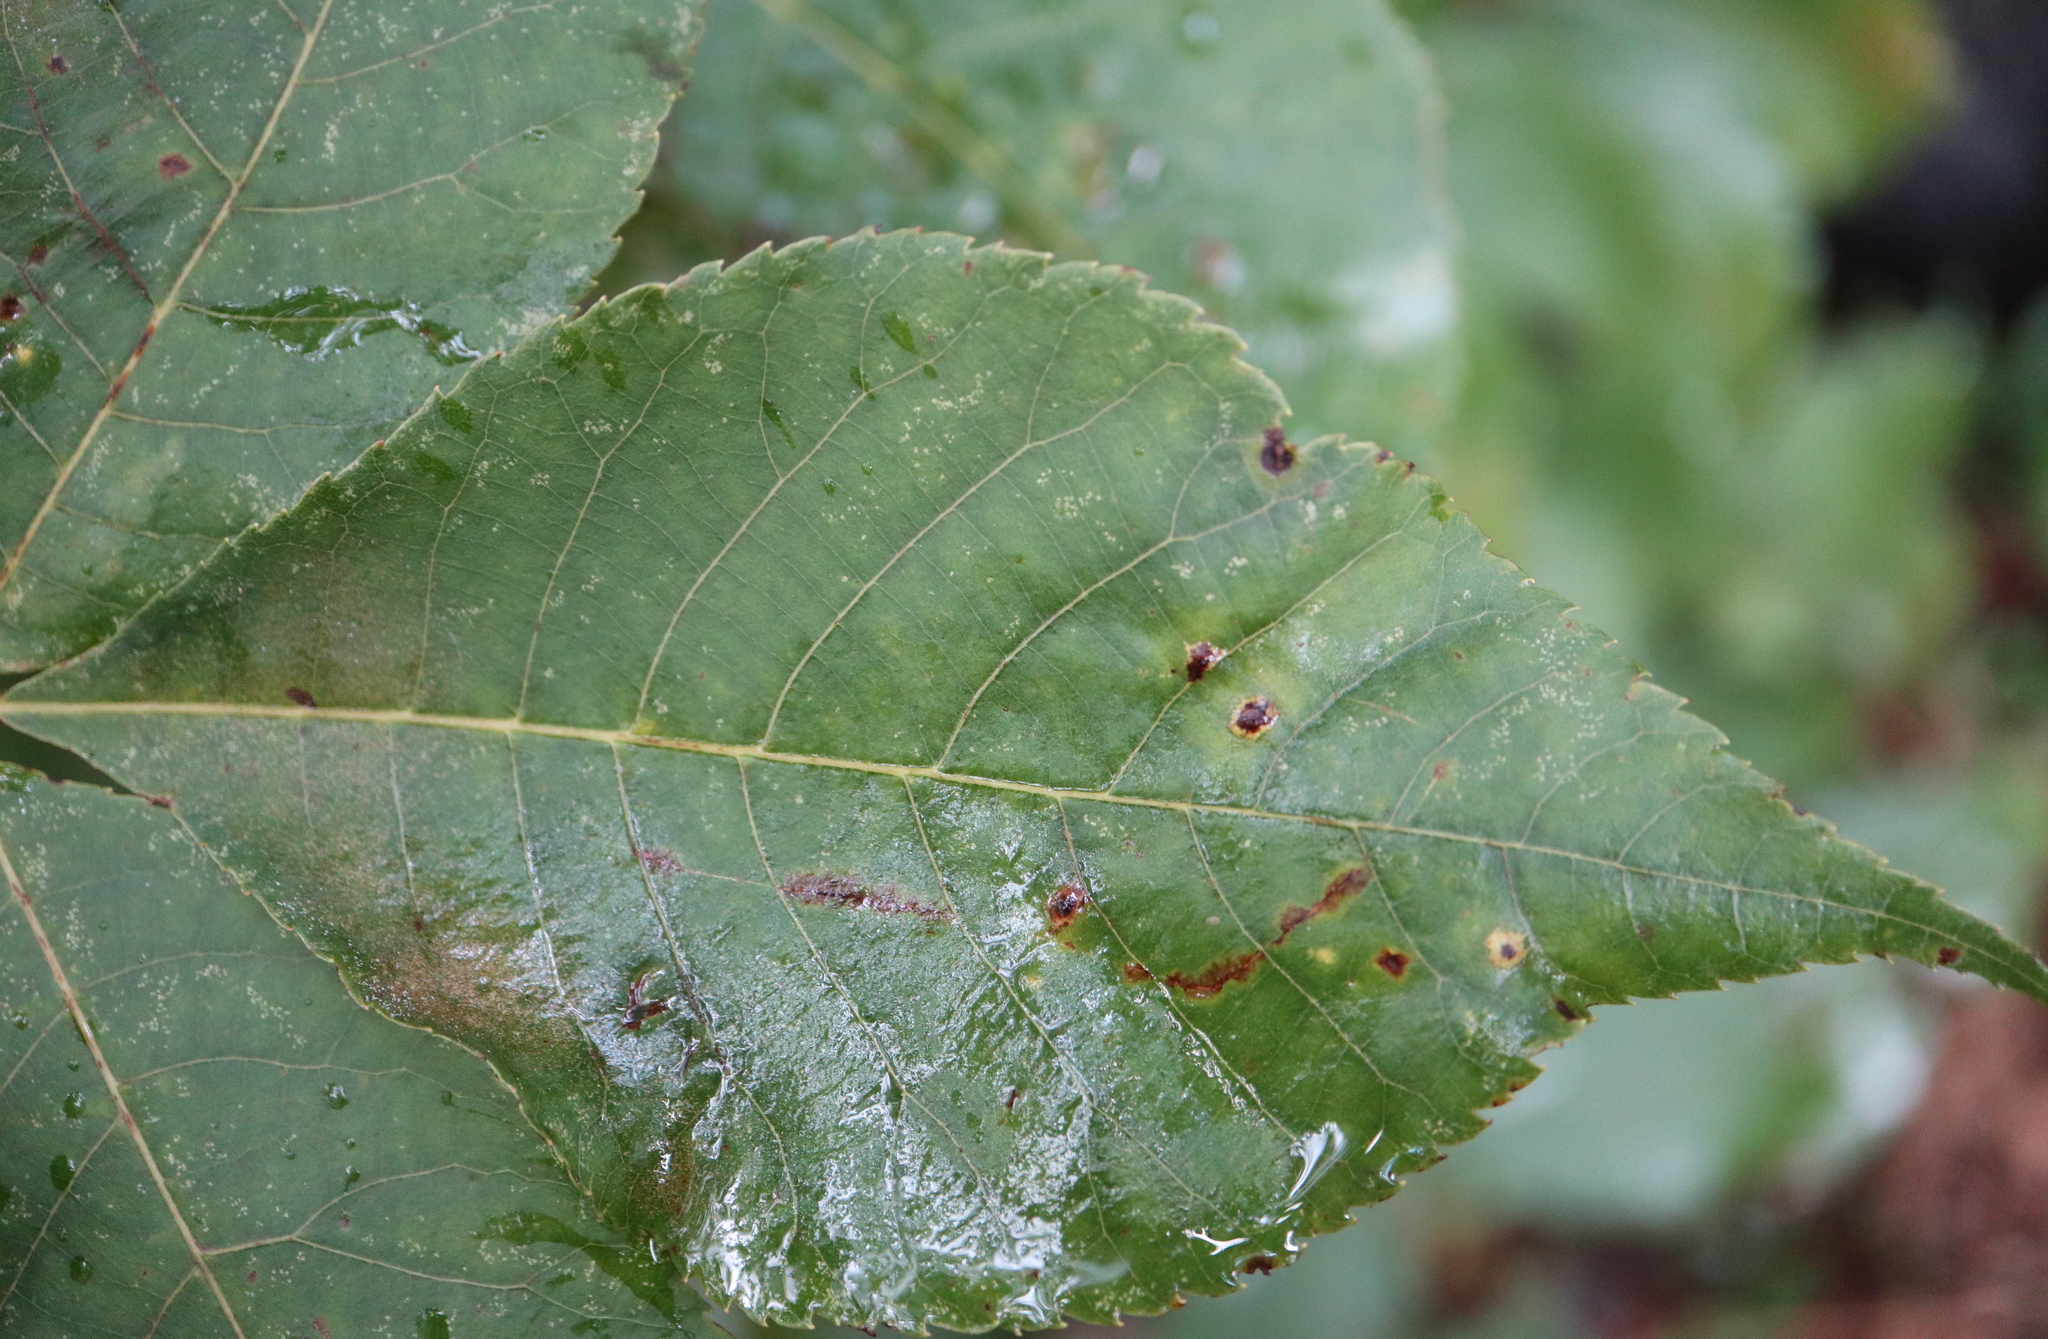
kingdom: Animalia
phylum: Arthropoda
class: Insecta
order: Diptera
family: Cecidomyiidae
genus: Caryomyia
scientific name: Caryomyia caryae
